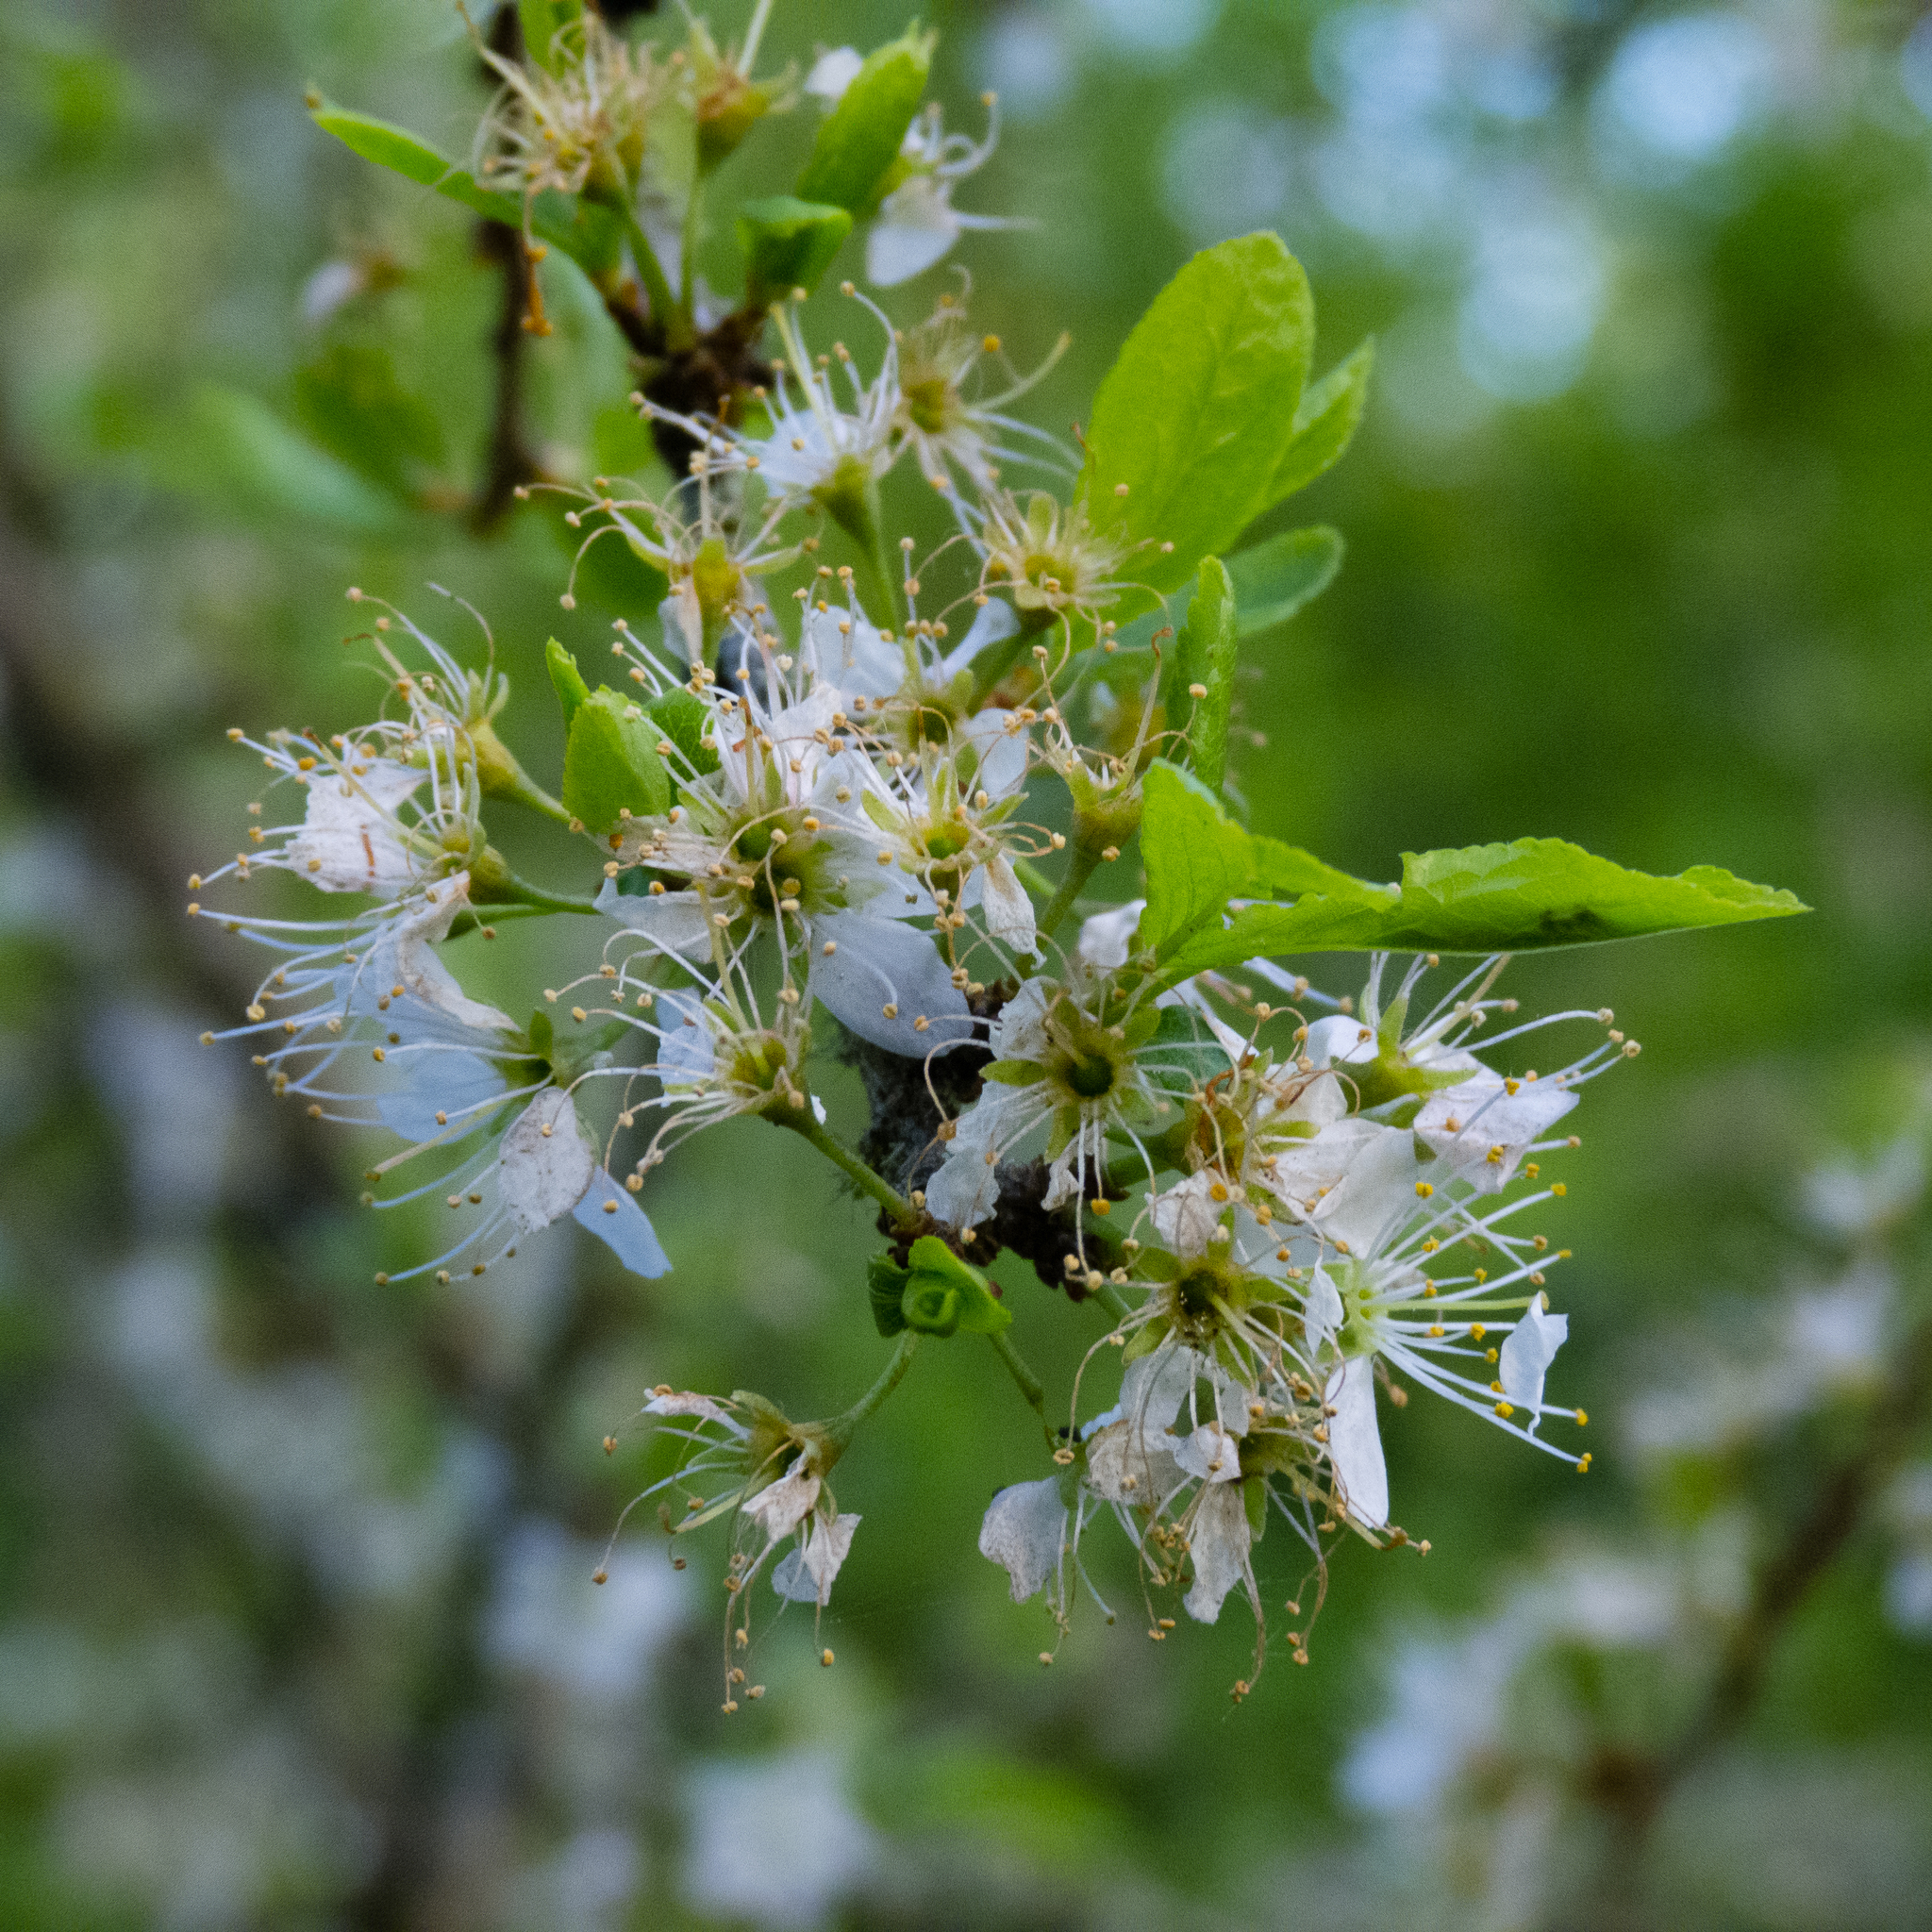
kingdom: Plantae
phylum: Tracheophyta
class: Magnoliopsida
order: Rosales
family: Rosaceae
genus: Prunus
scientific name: Prunus spinosa
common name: Blackthorn
